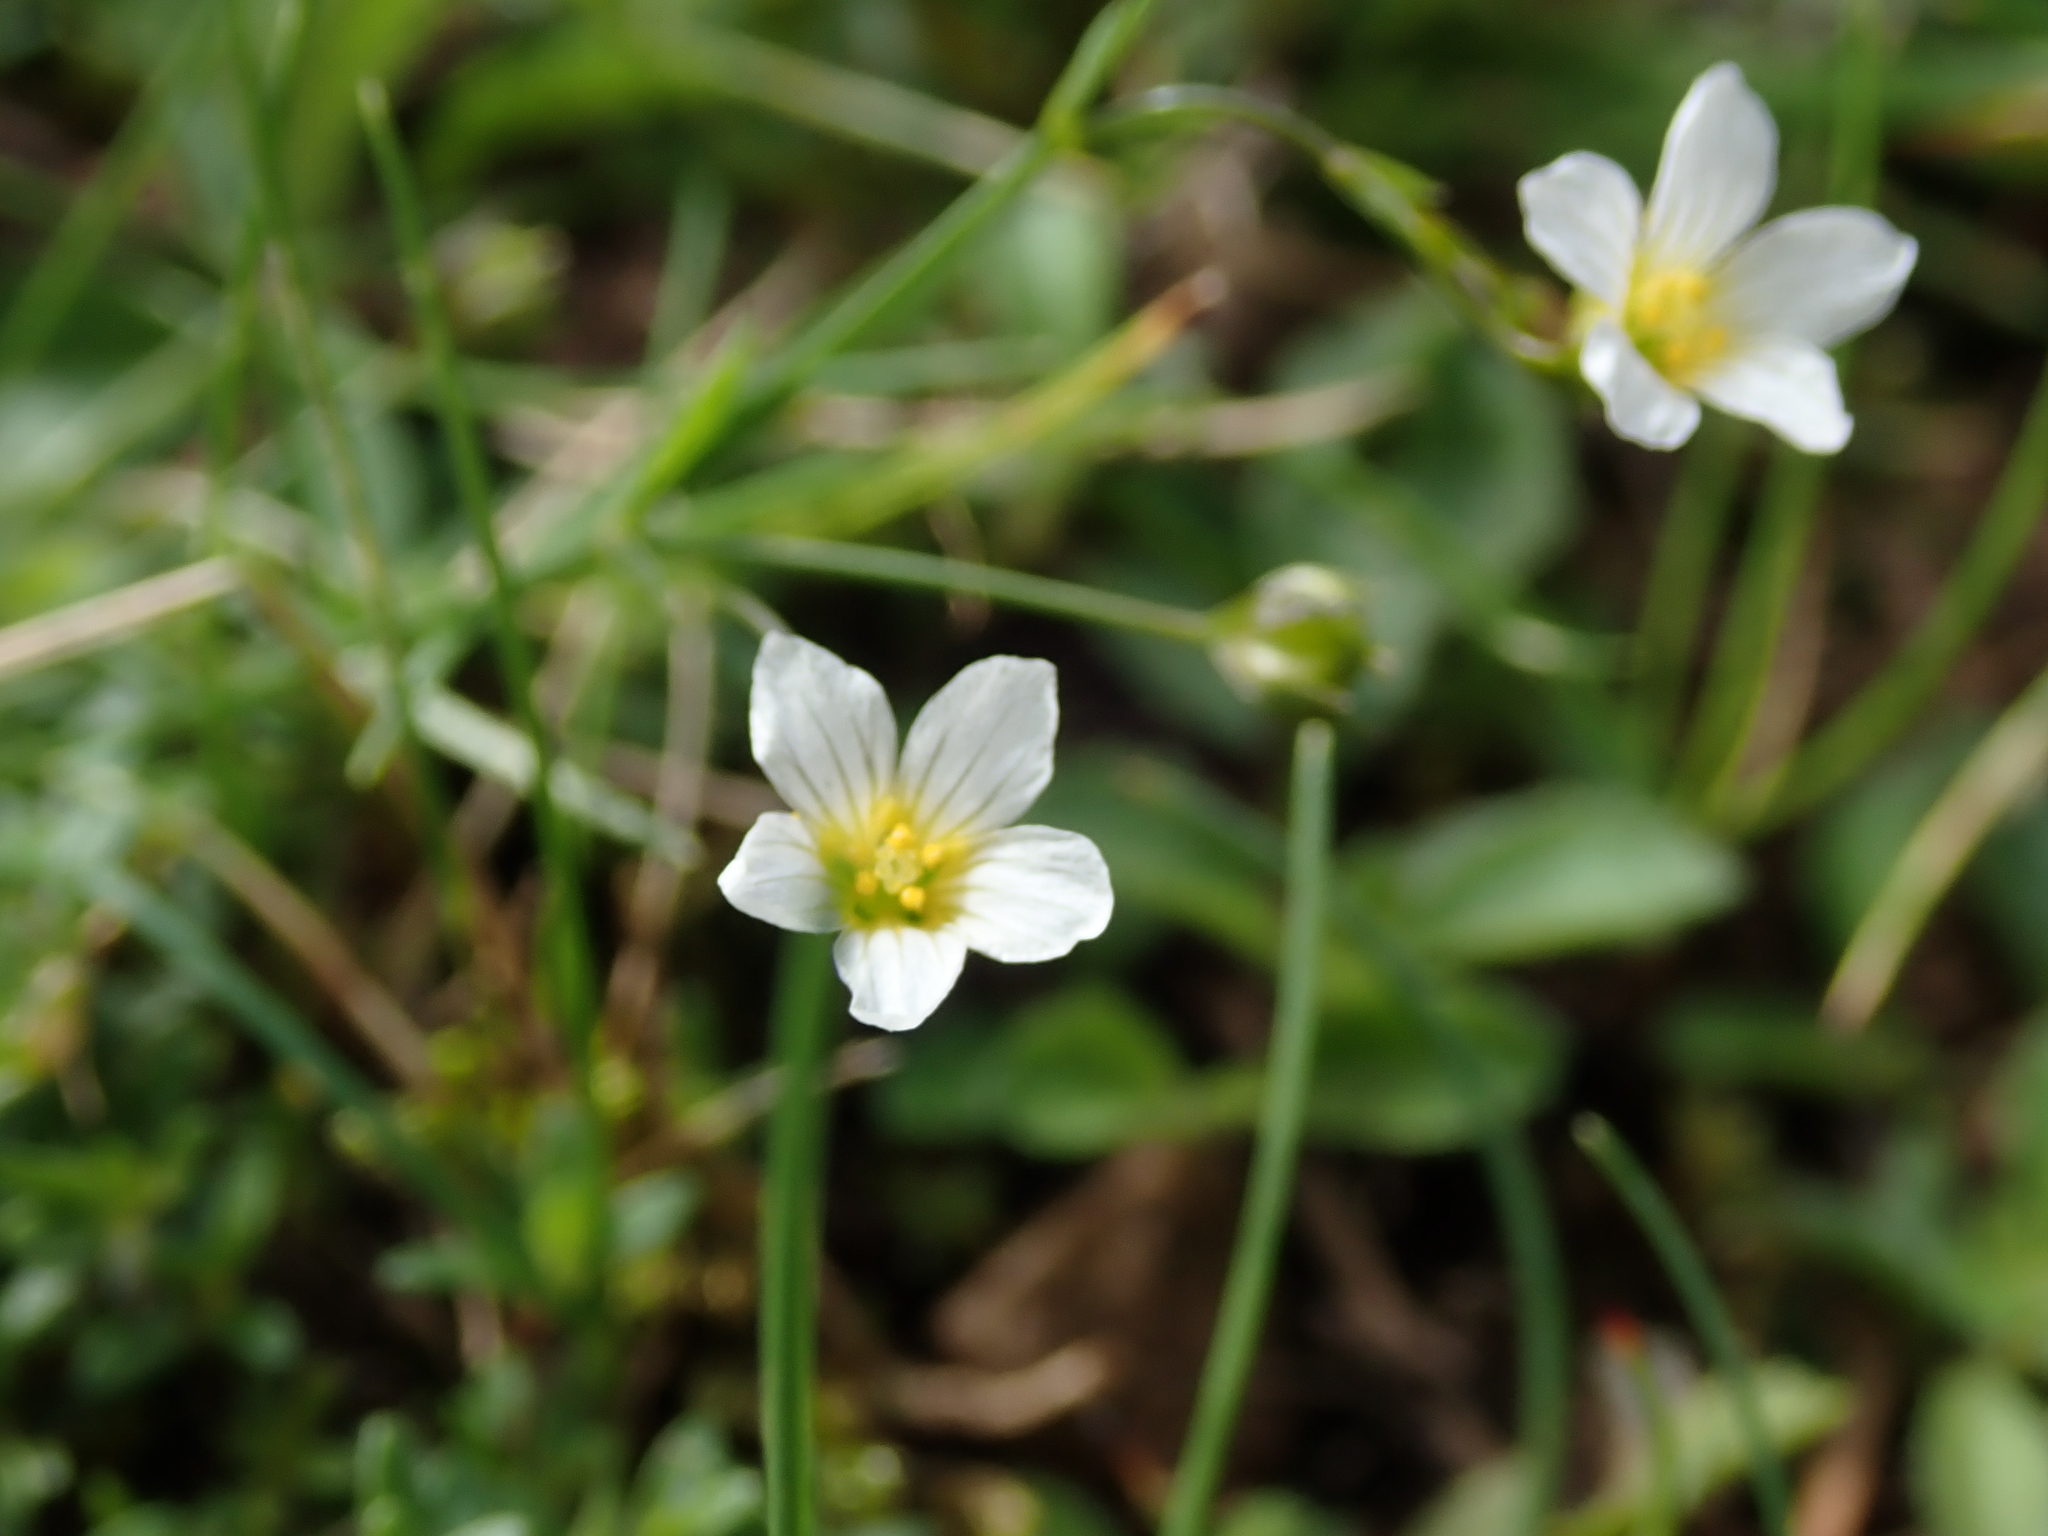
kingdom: Plantae
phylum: Tracheophyta
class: Magnoliopsida
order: Malpighiales
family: Linaceae
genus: Linum
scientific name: Linum catharticum
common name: Fairy flax
